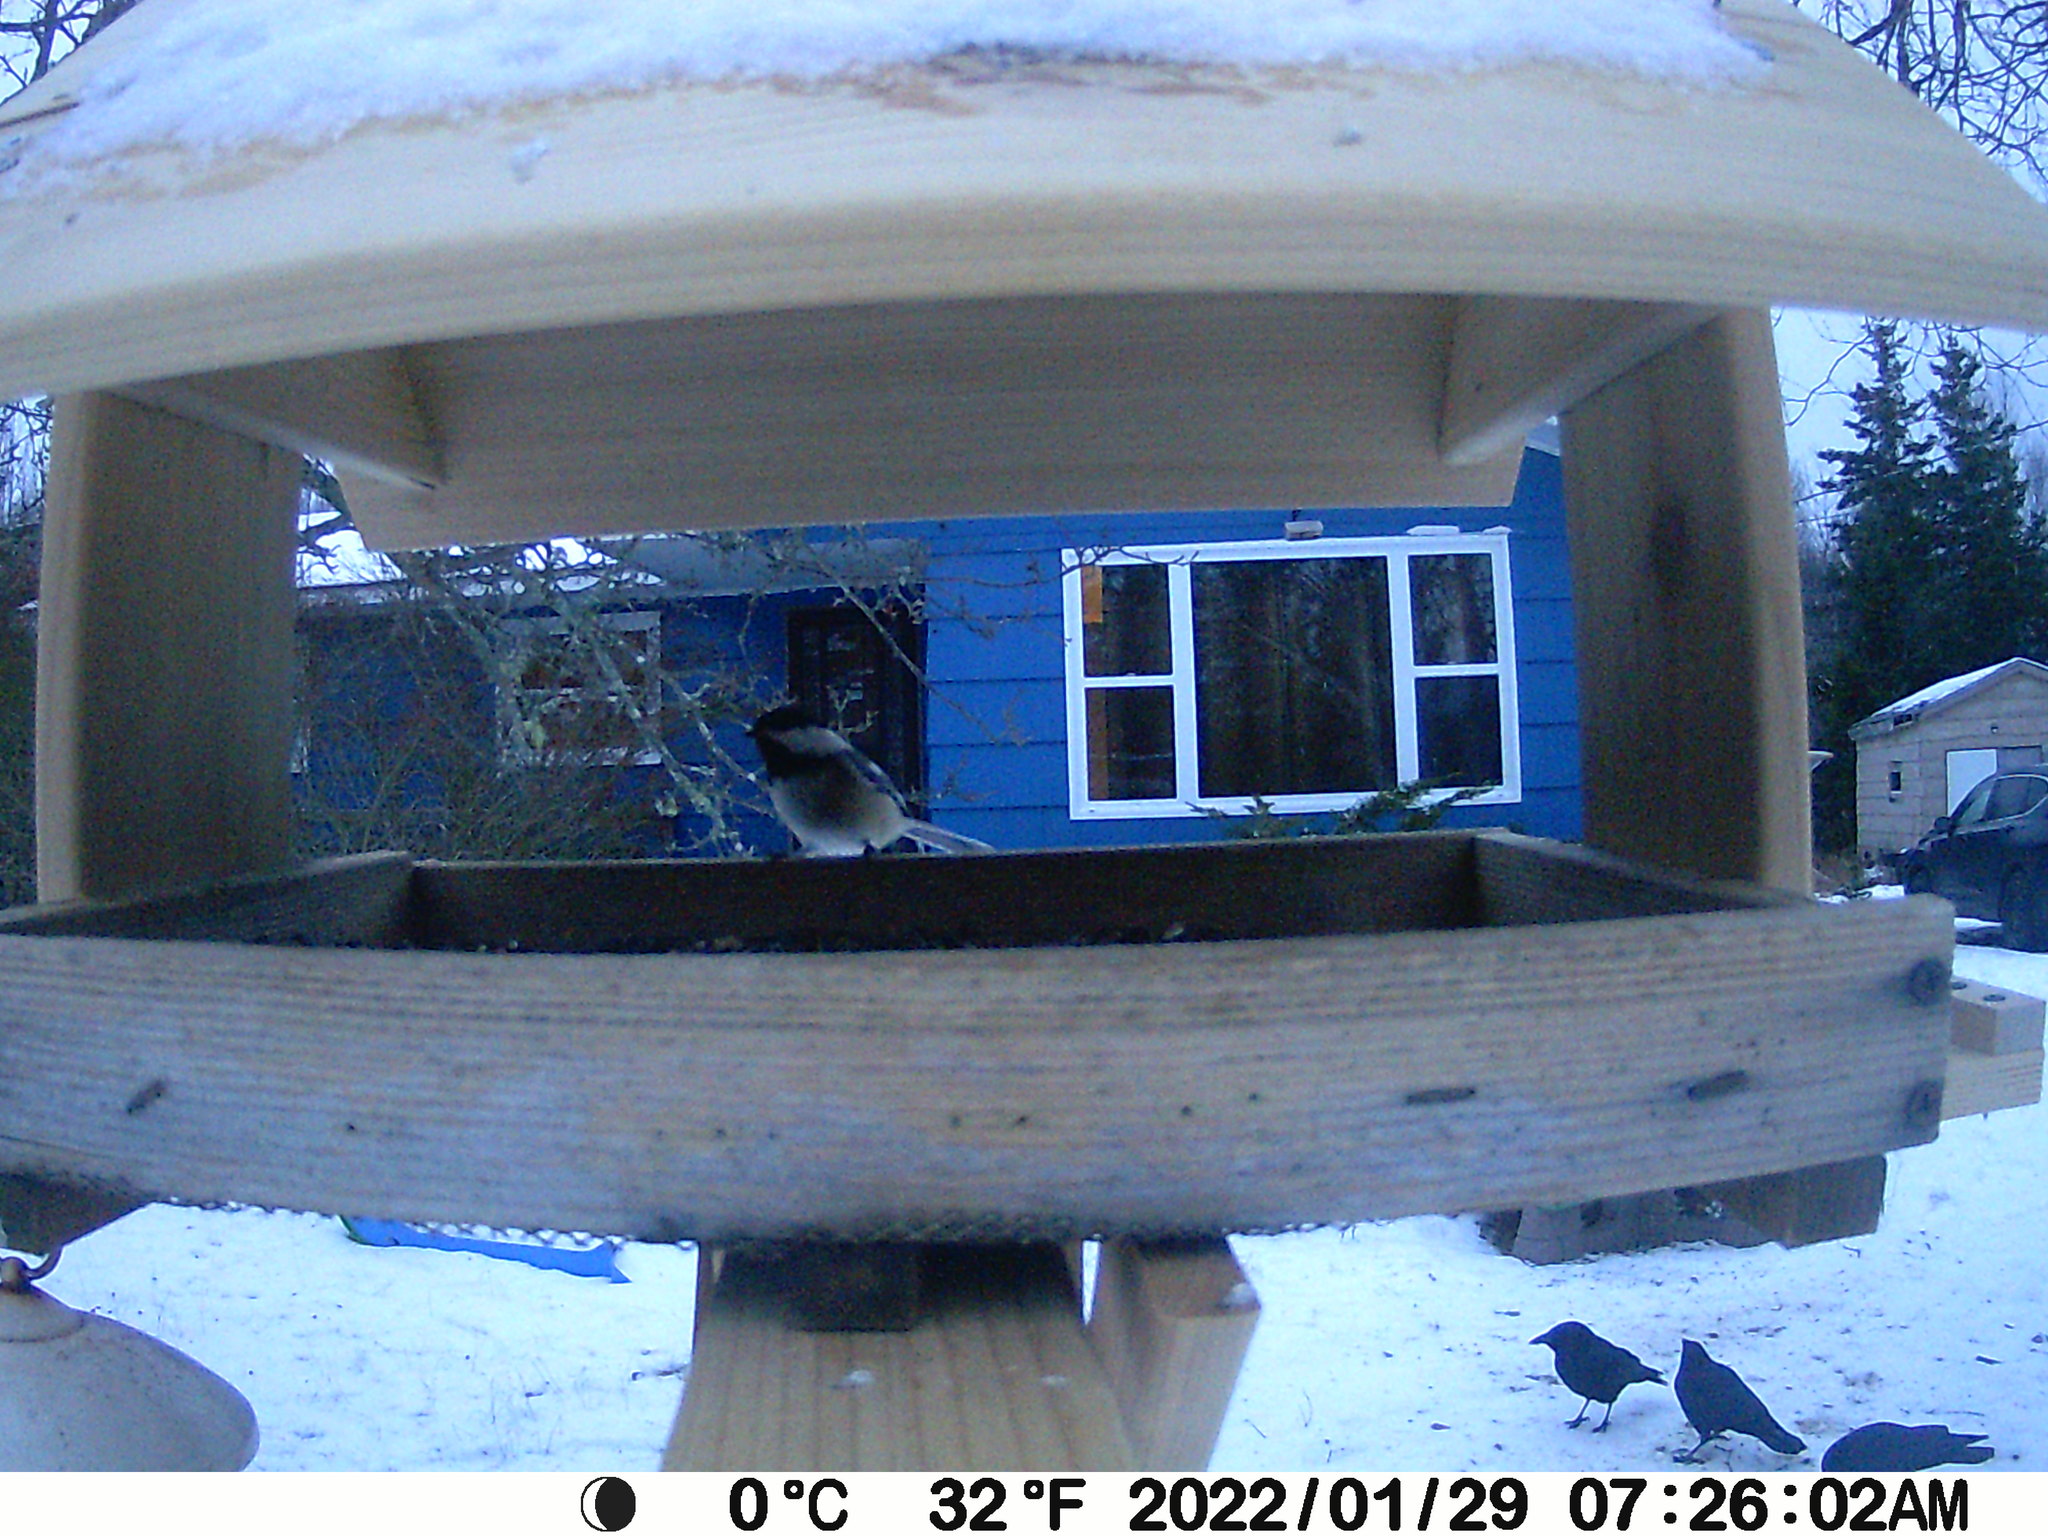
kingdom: Animalia
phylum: Chordata
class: Aves
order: Passeriformes
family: Corvidae
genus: Corvus
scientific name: Corvus brachyrhynchos
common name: American crow
